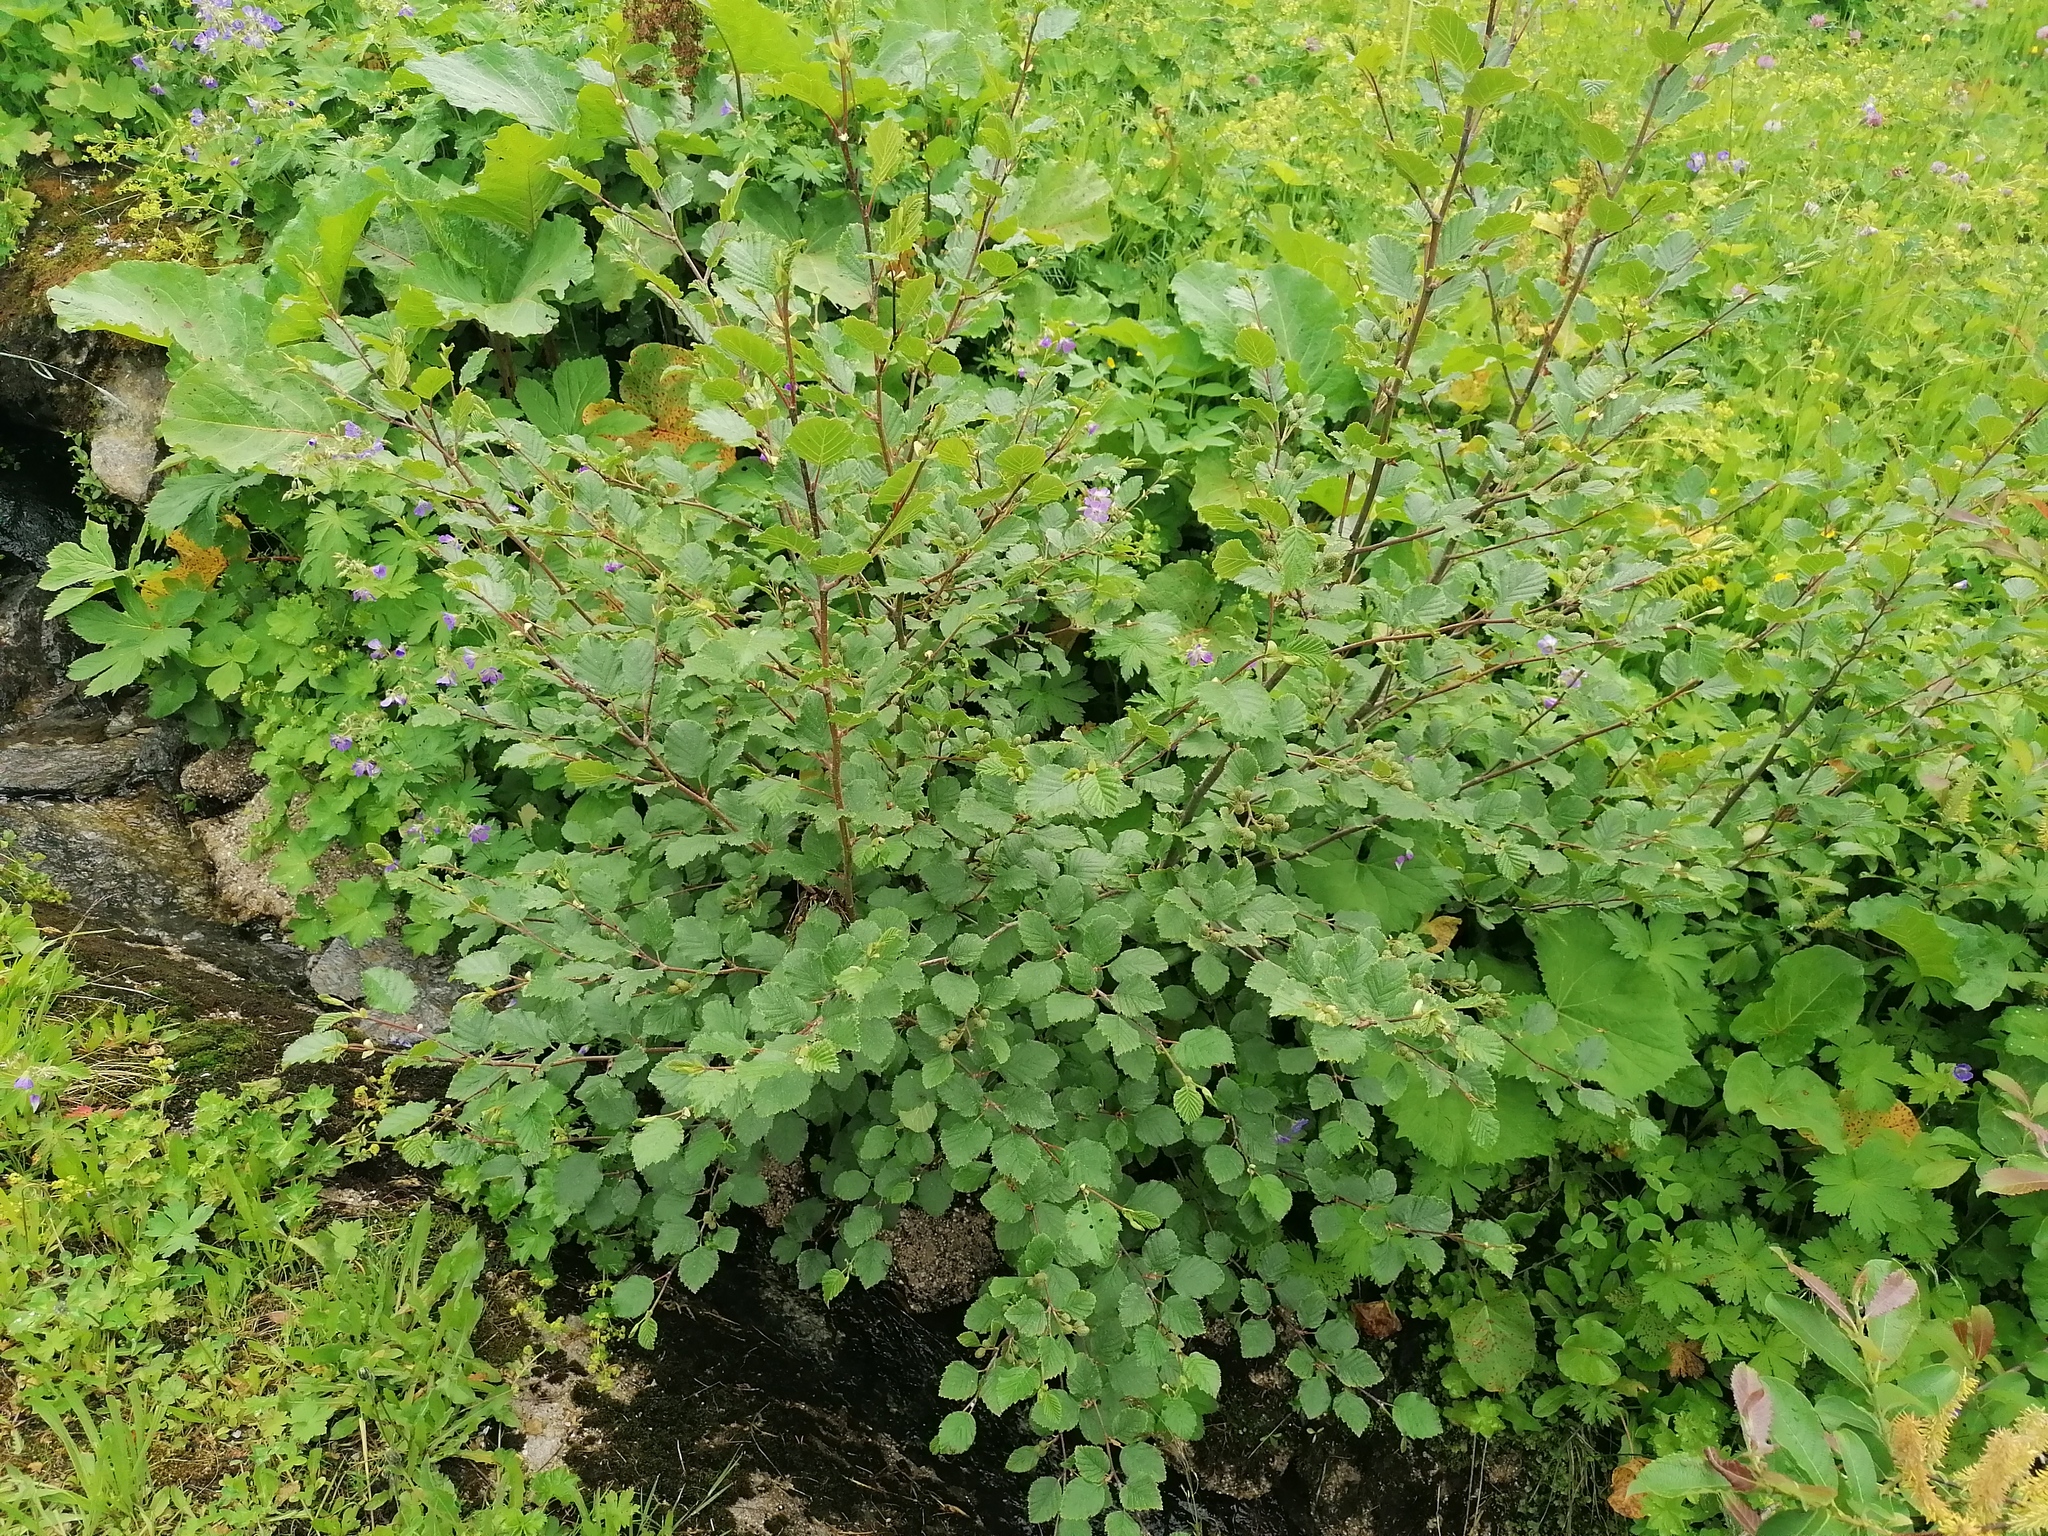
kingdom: Plantae
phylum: Tracheophyta
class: Magnoliopsida
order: Fagales
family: Betulaceae
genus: Alnus
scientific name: Alnus alnobetula
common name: Green alder
